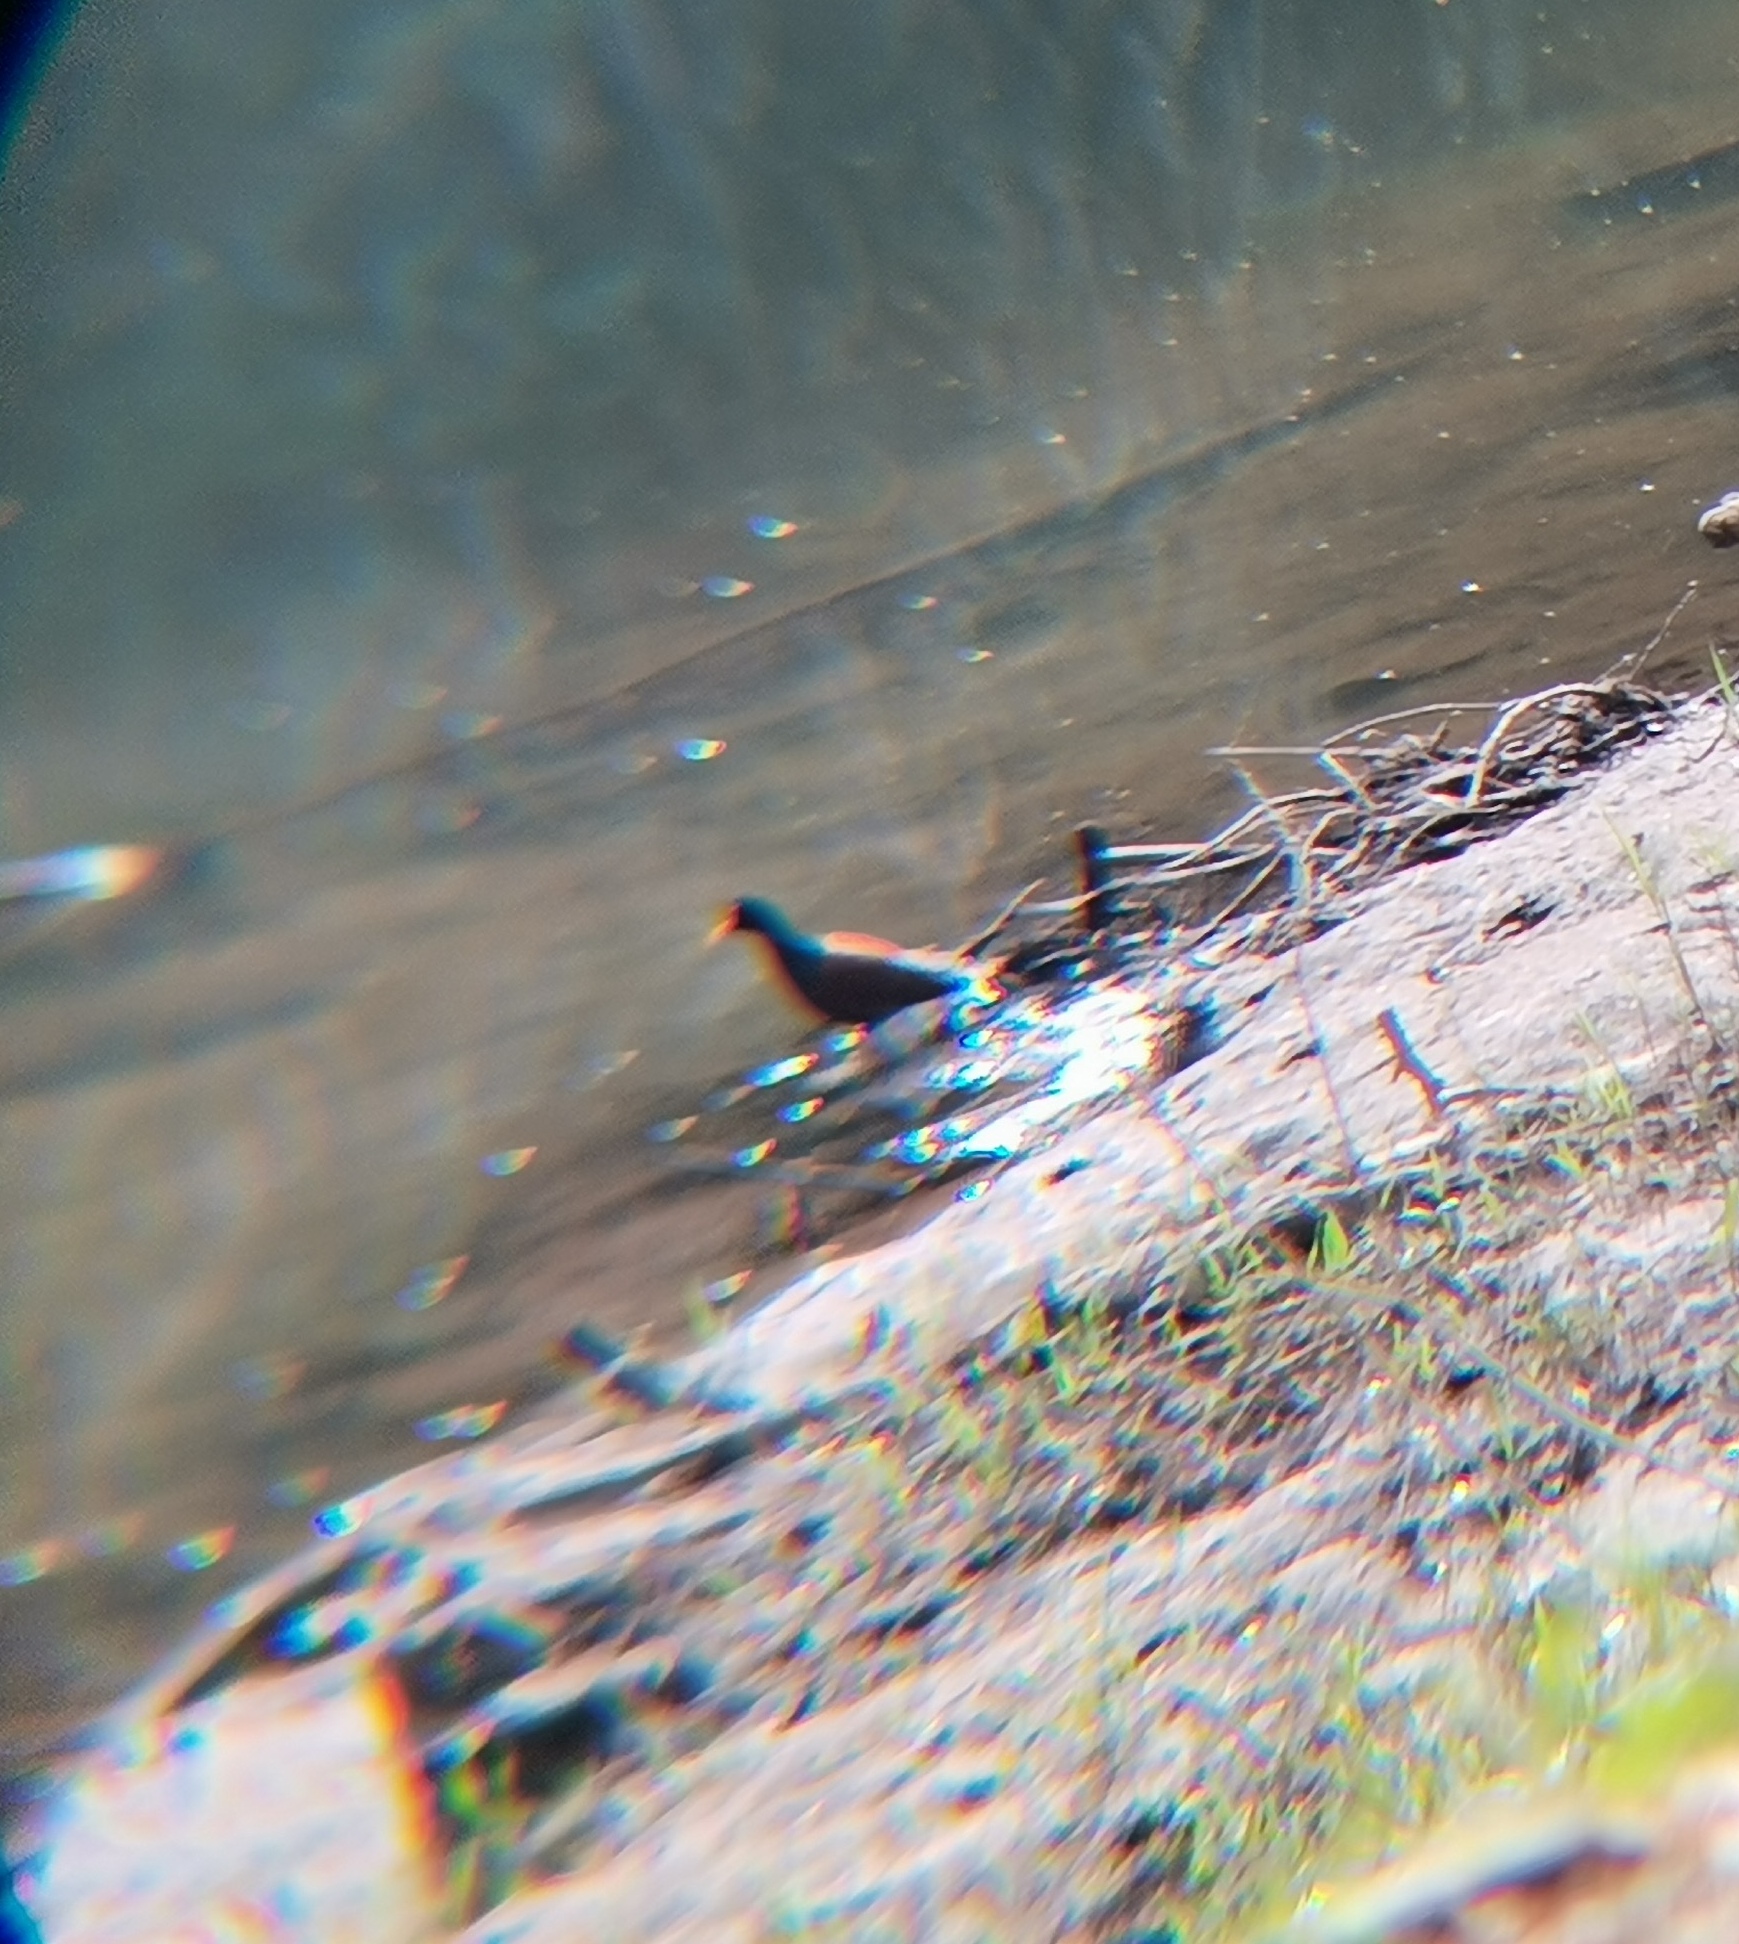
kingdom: Animalia
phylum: Chordata
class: Aves
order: Charadriiformes
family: Jacanidae
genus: Jacana
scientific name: Jacana spinosa
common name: Northern jacana
